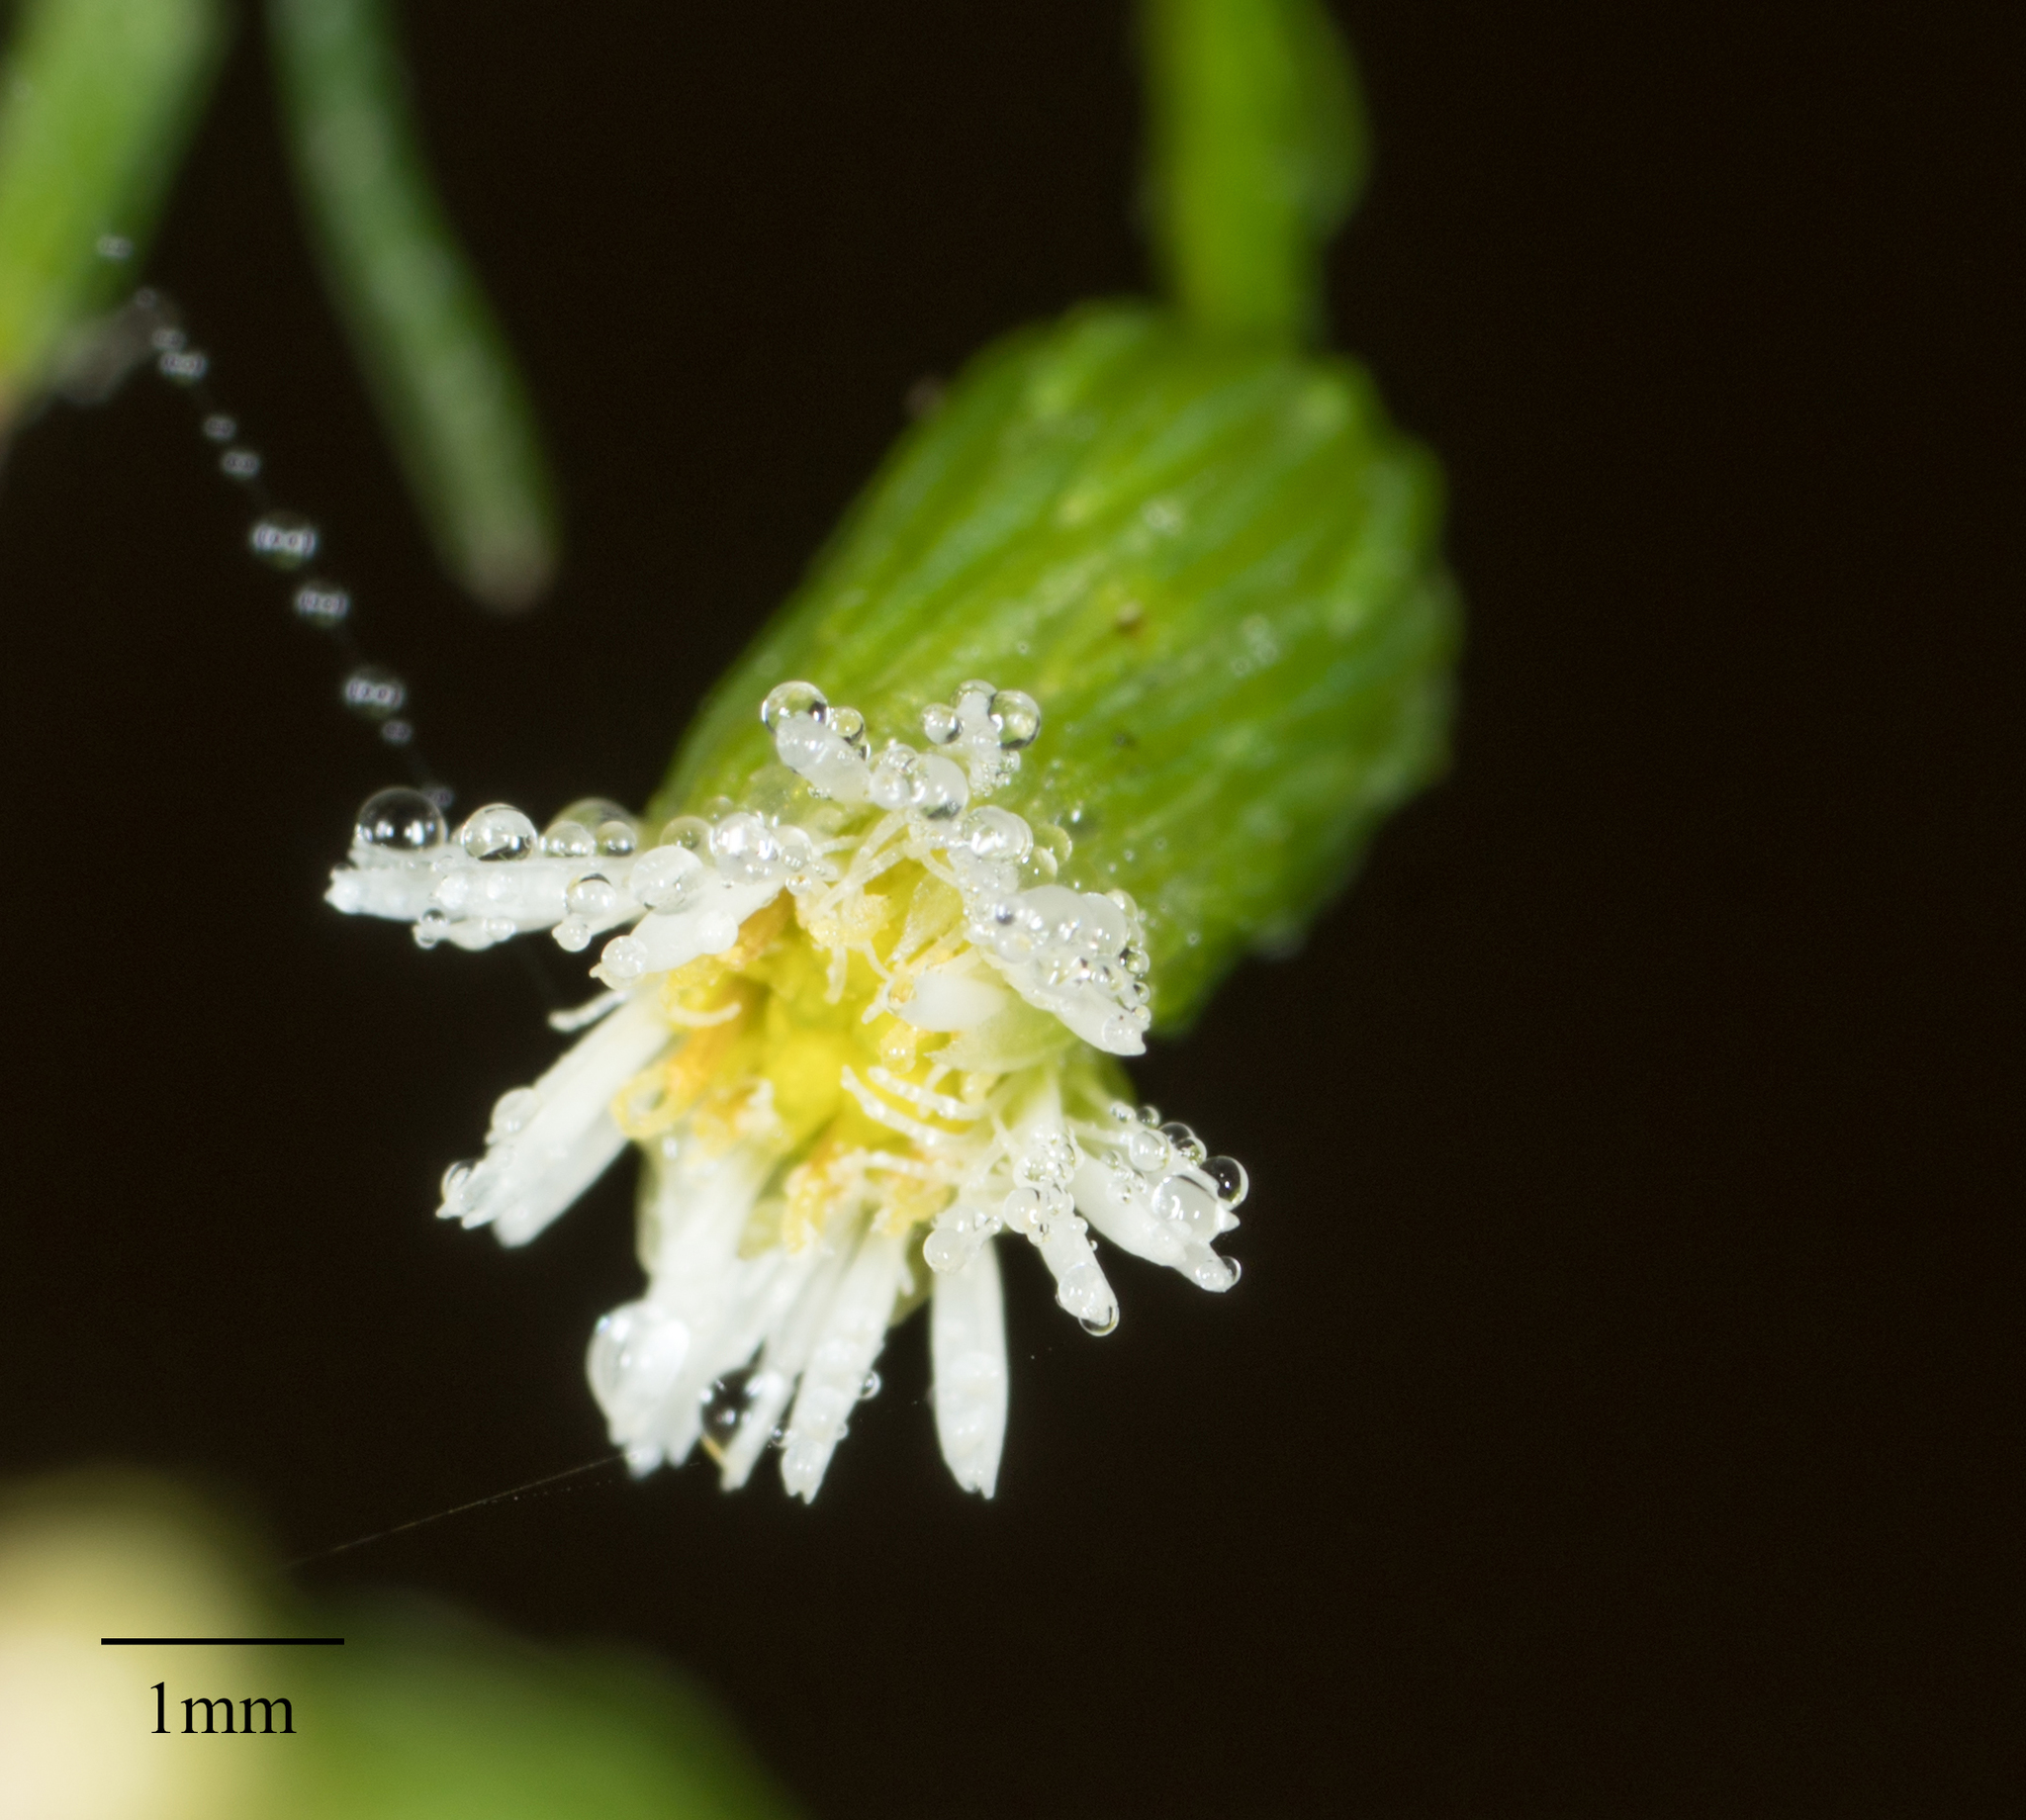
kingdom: Plantae
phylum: Tracheophyta
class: Magnoliopsida
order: Asterales
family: Asteraceae
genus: Erigeron
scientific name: Erigeron canadensis
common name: Canadian fleabane
